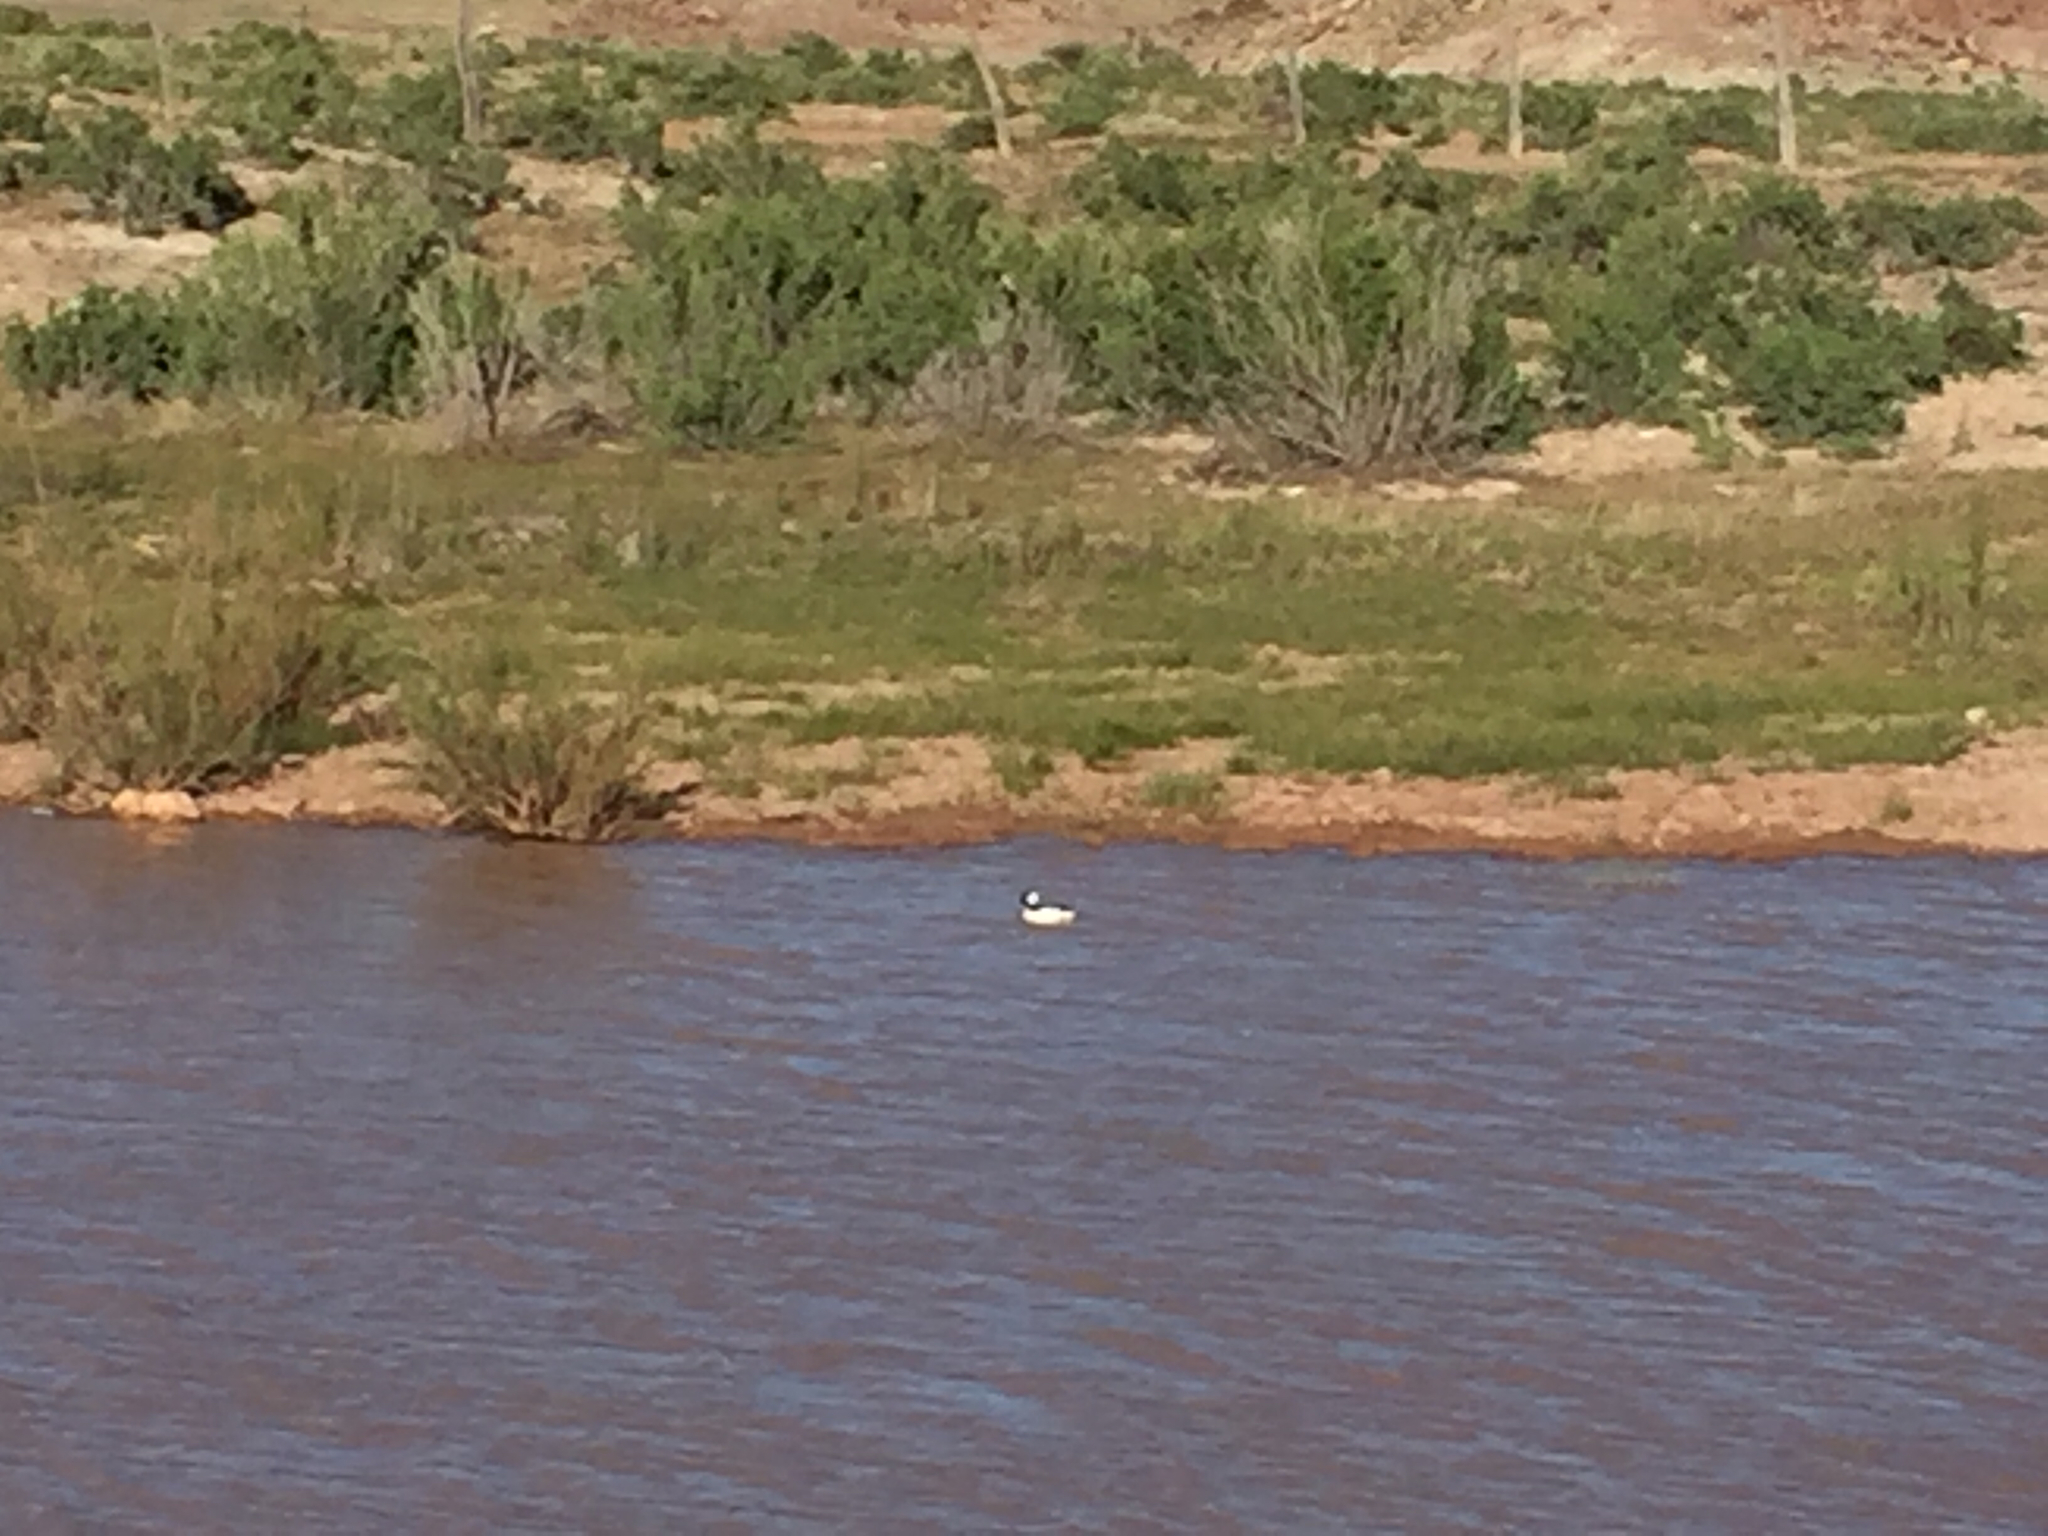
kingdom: Animalia
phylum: Chordata
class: Aves
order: Anseriformes
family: Anatidae
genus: Bucephala
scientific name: Bucephala albeola
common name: Bufflehead
